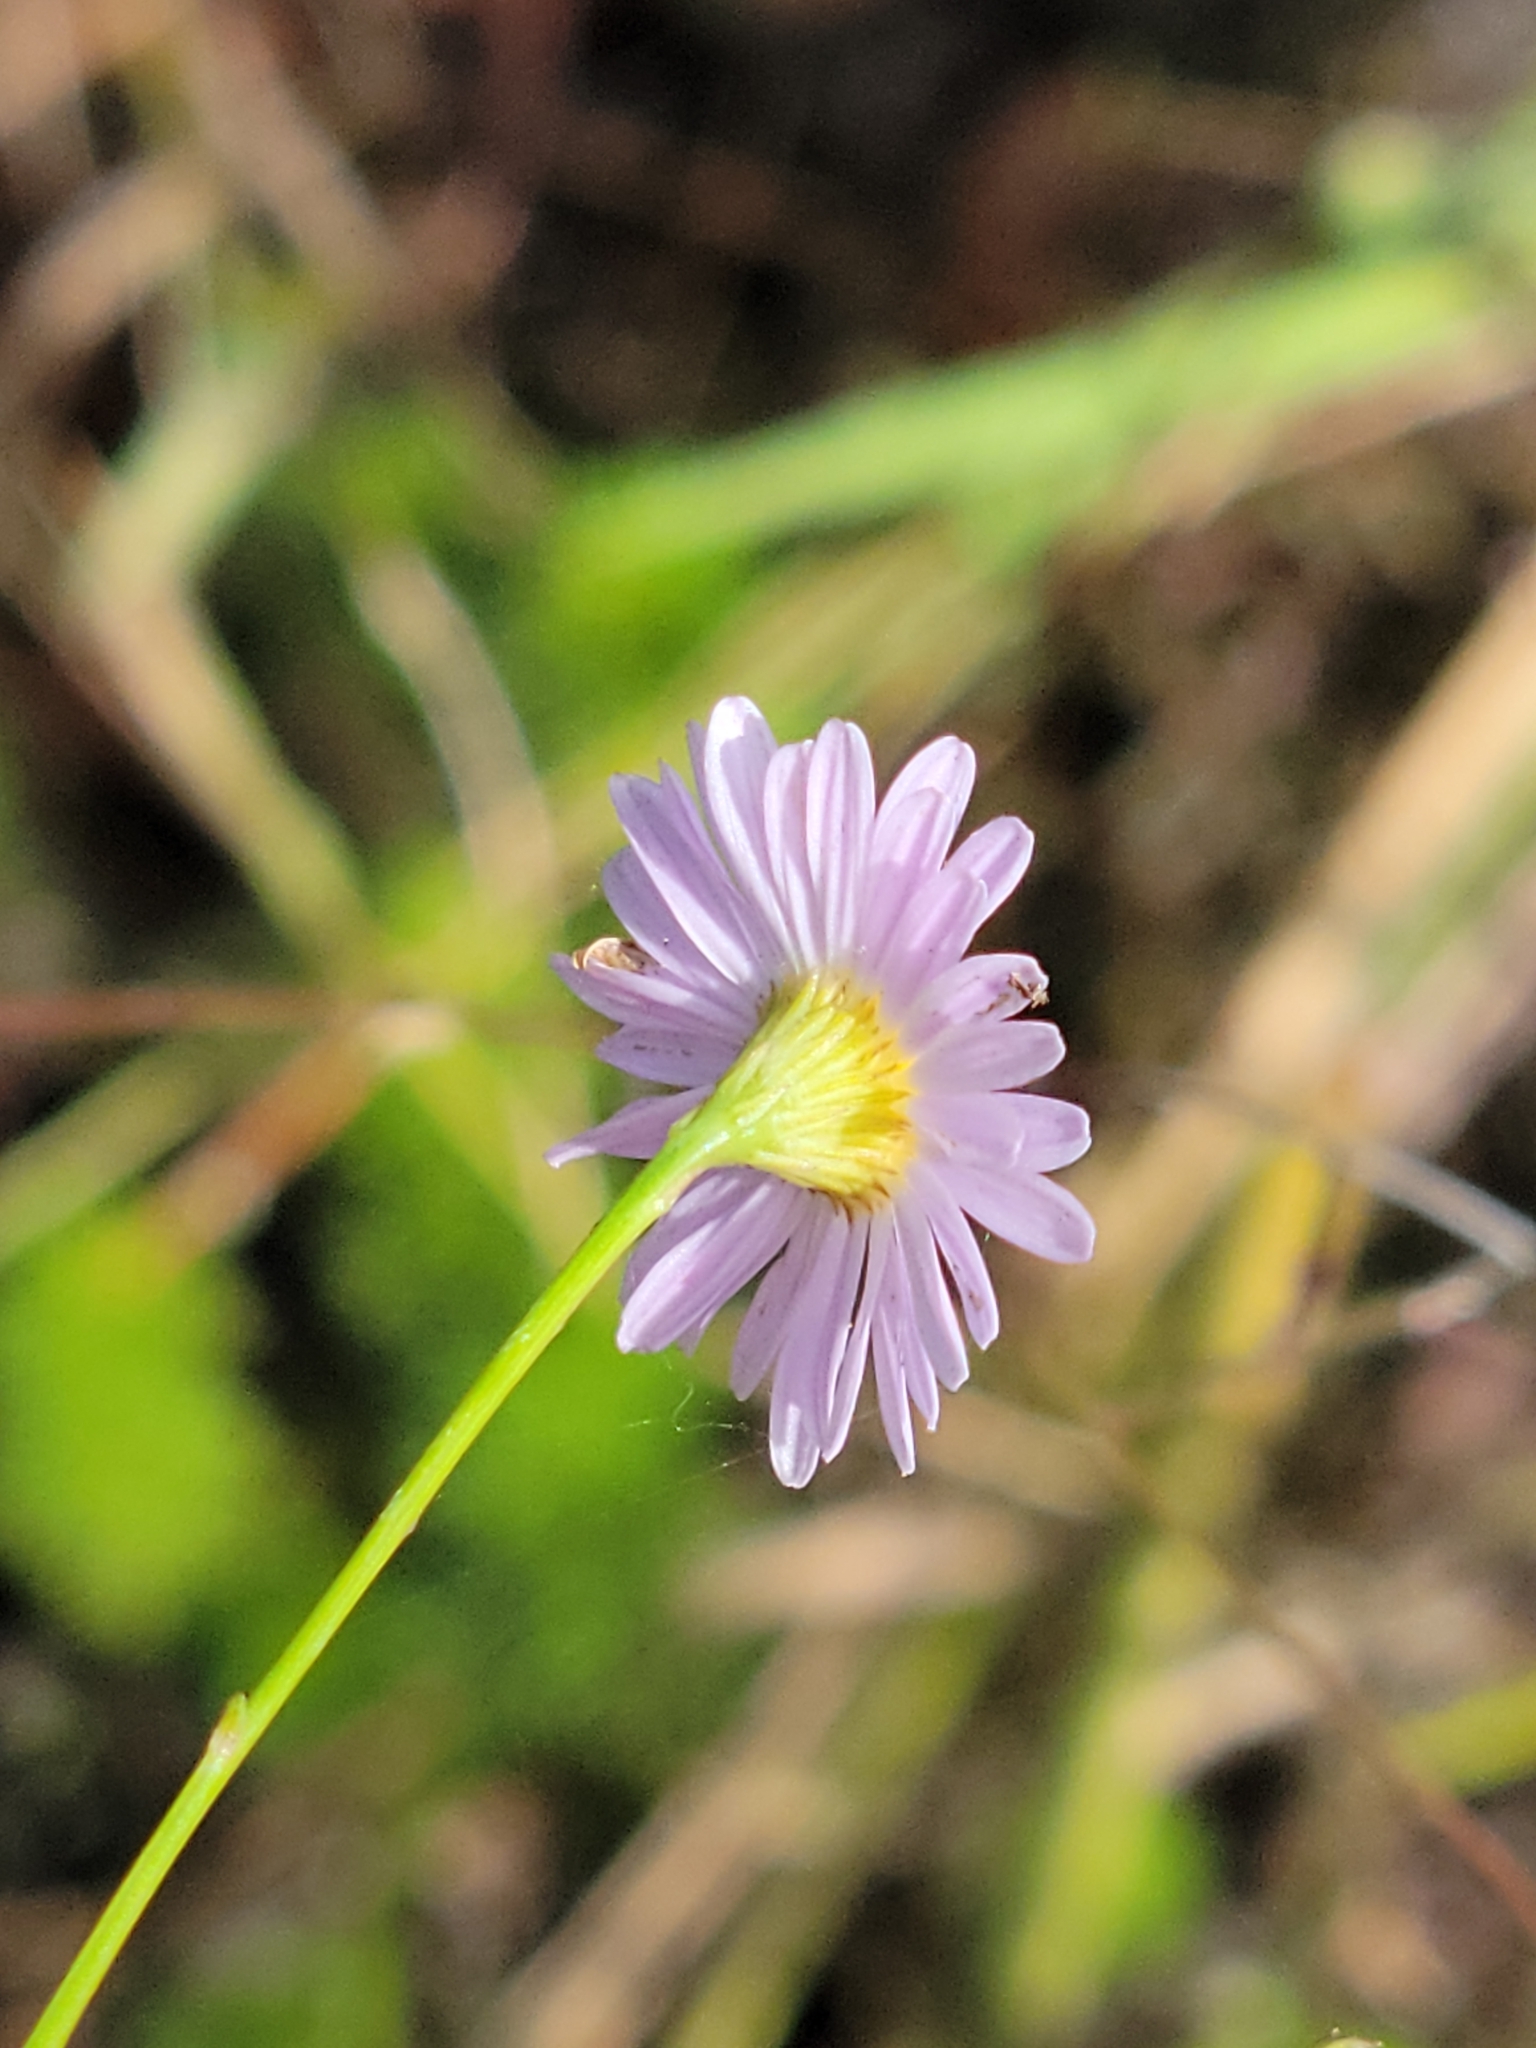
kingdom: Plantae
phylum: Tracheophyta
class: Magnoliopsida
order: Asterales
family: Asteraceae
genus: Boltonia
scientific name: Boltonia diffusa
